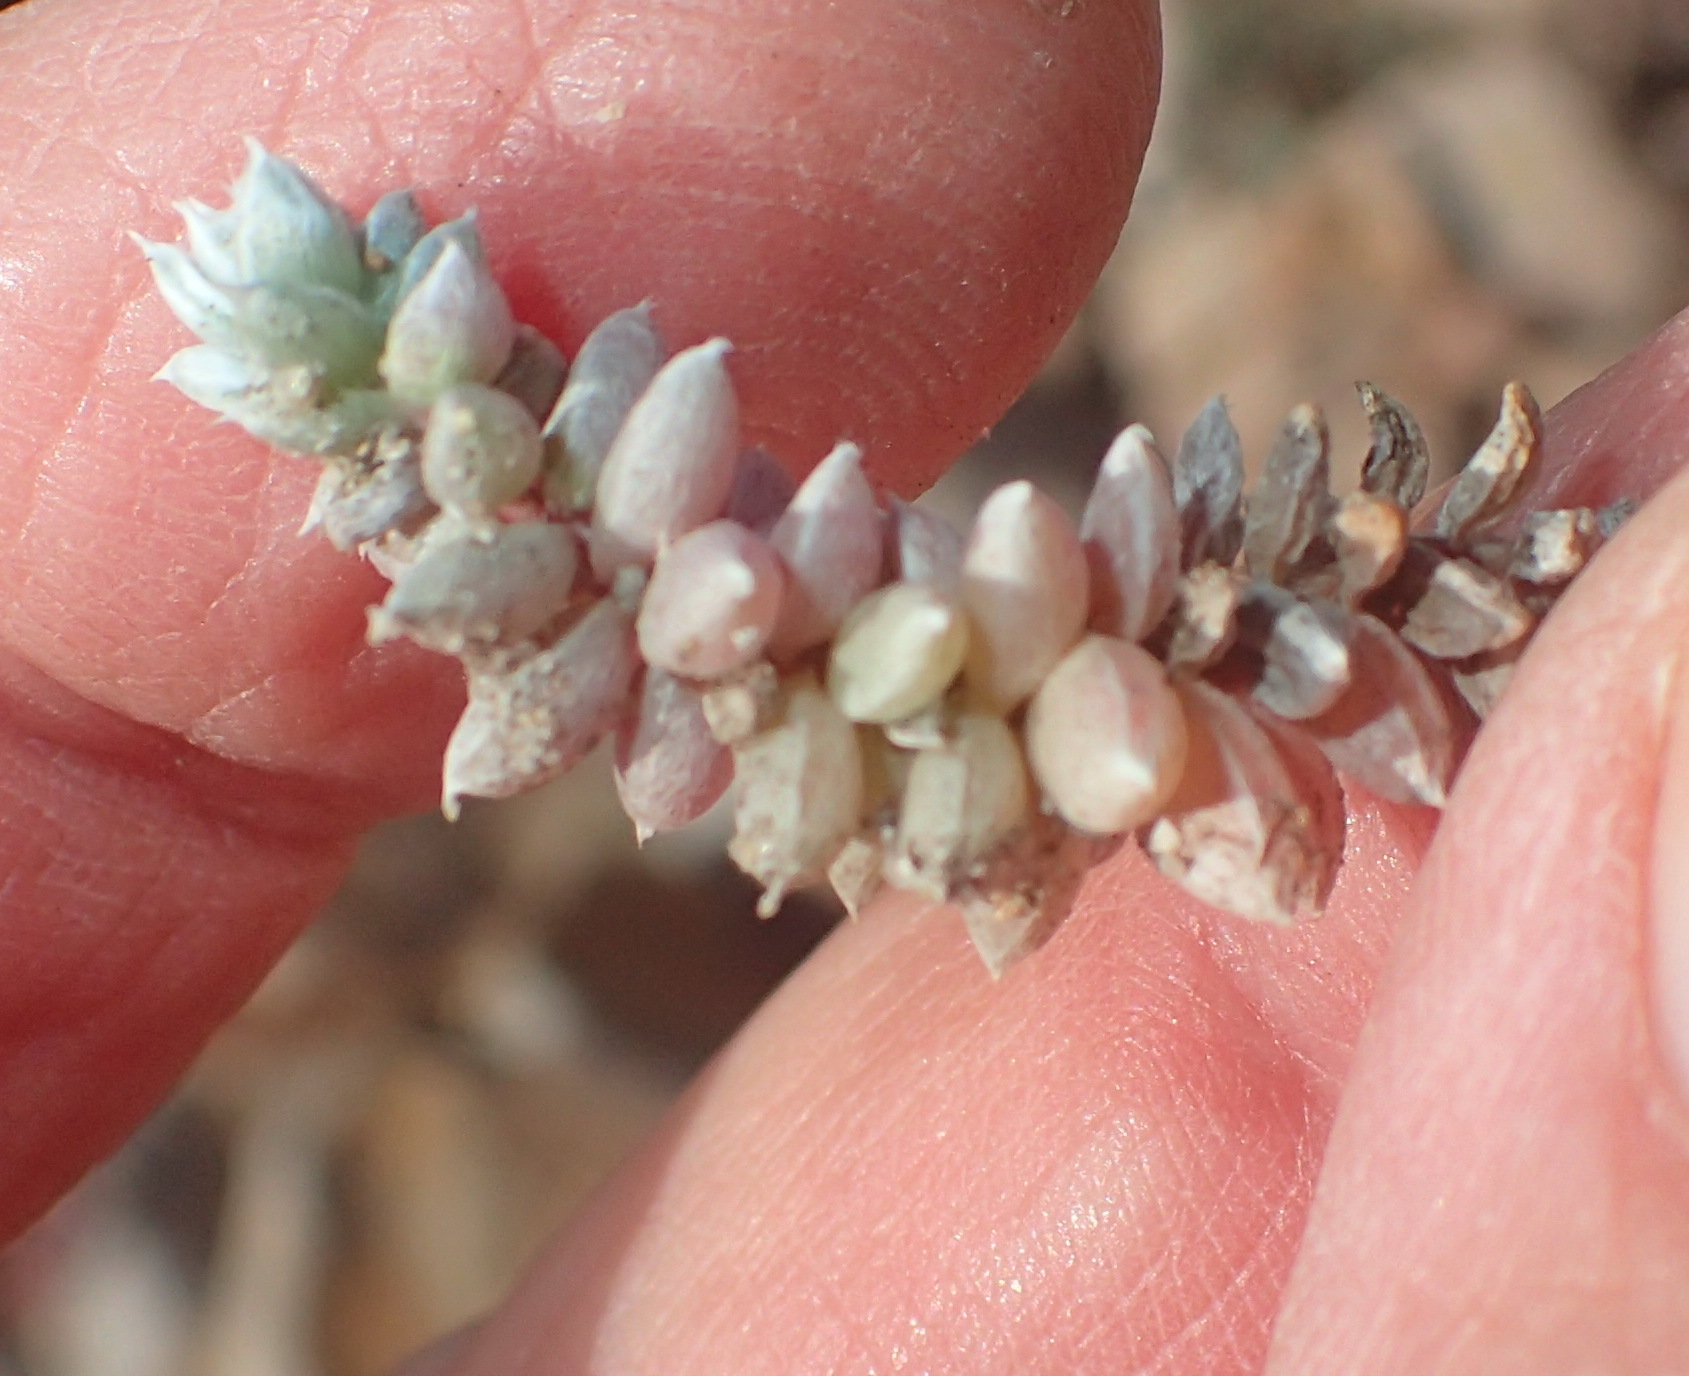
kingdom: Plantae
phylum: Tracheophyta
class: Magnoliopsida
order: Caryophyllales
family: Amaranthaceae
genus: Chenolea
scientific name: Chenolea diffusa
